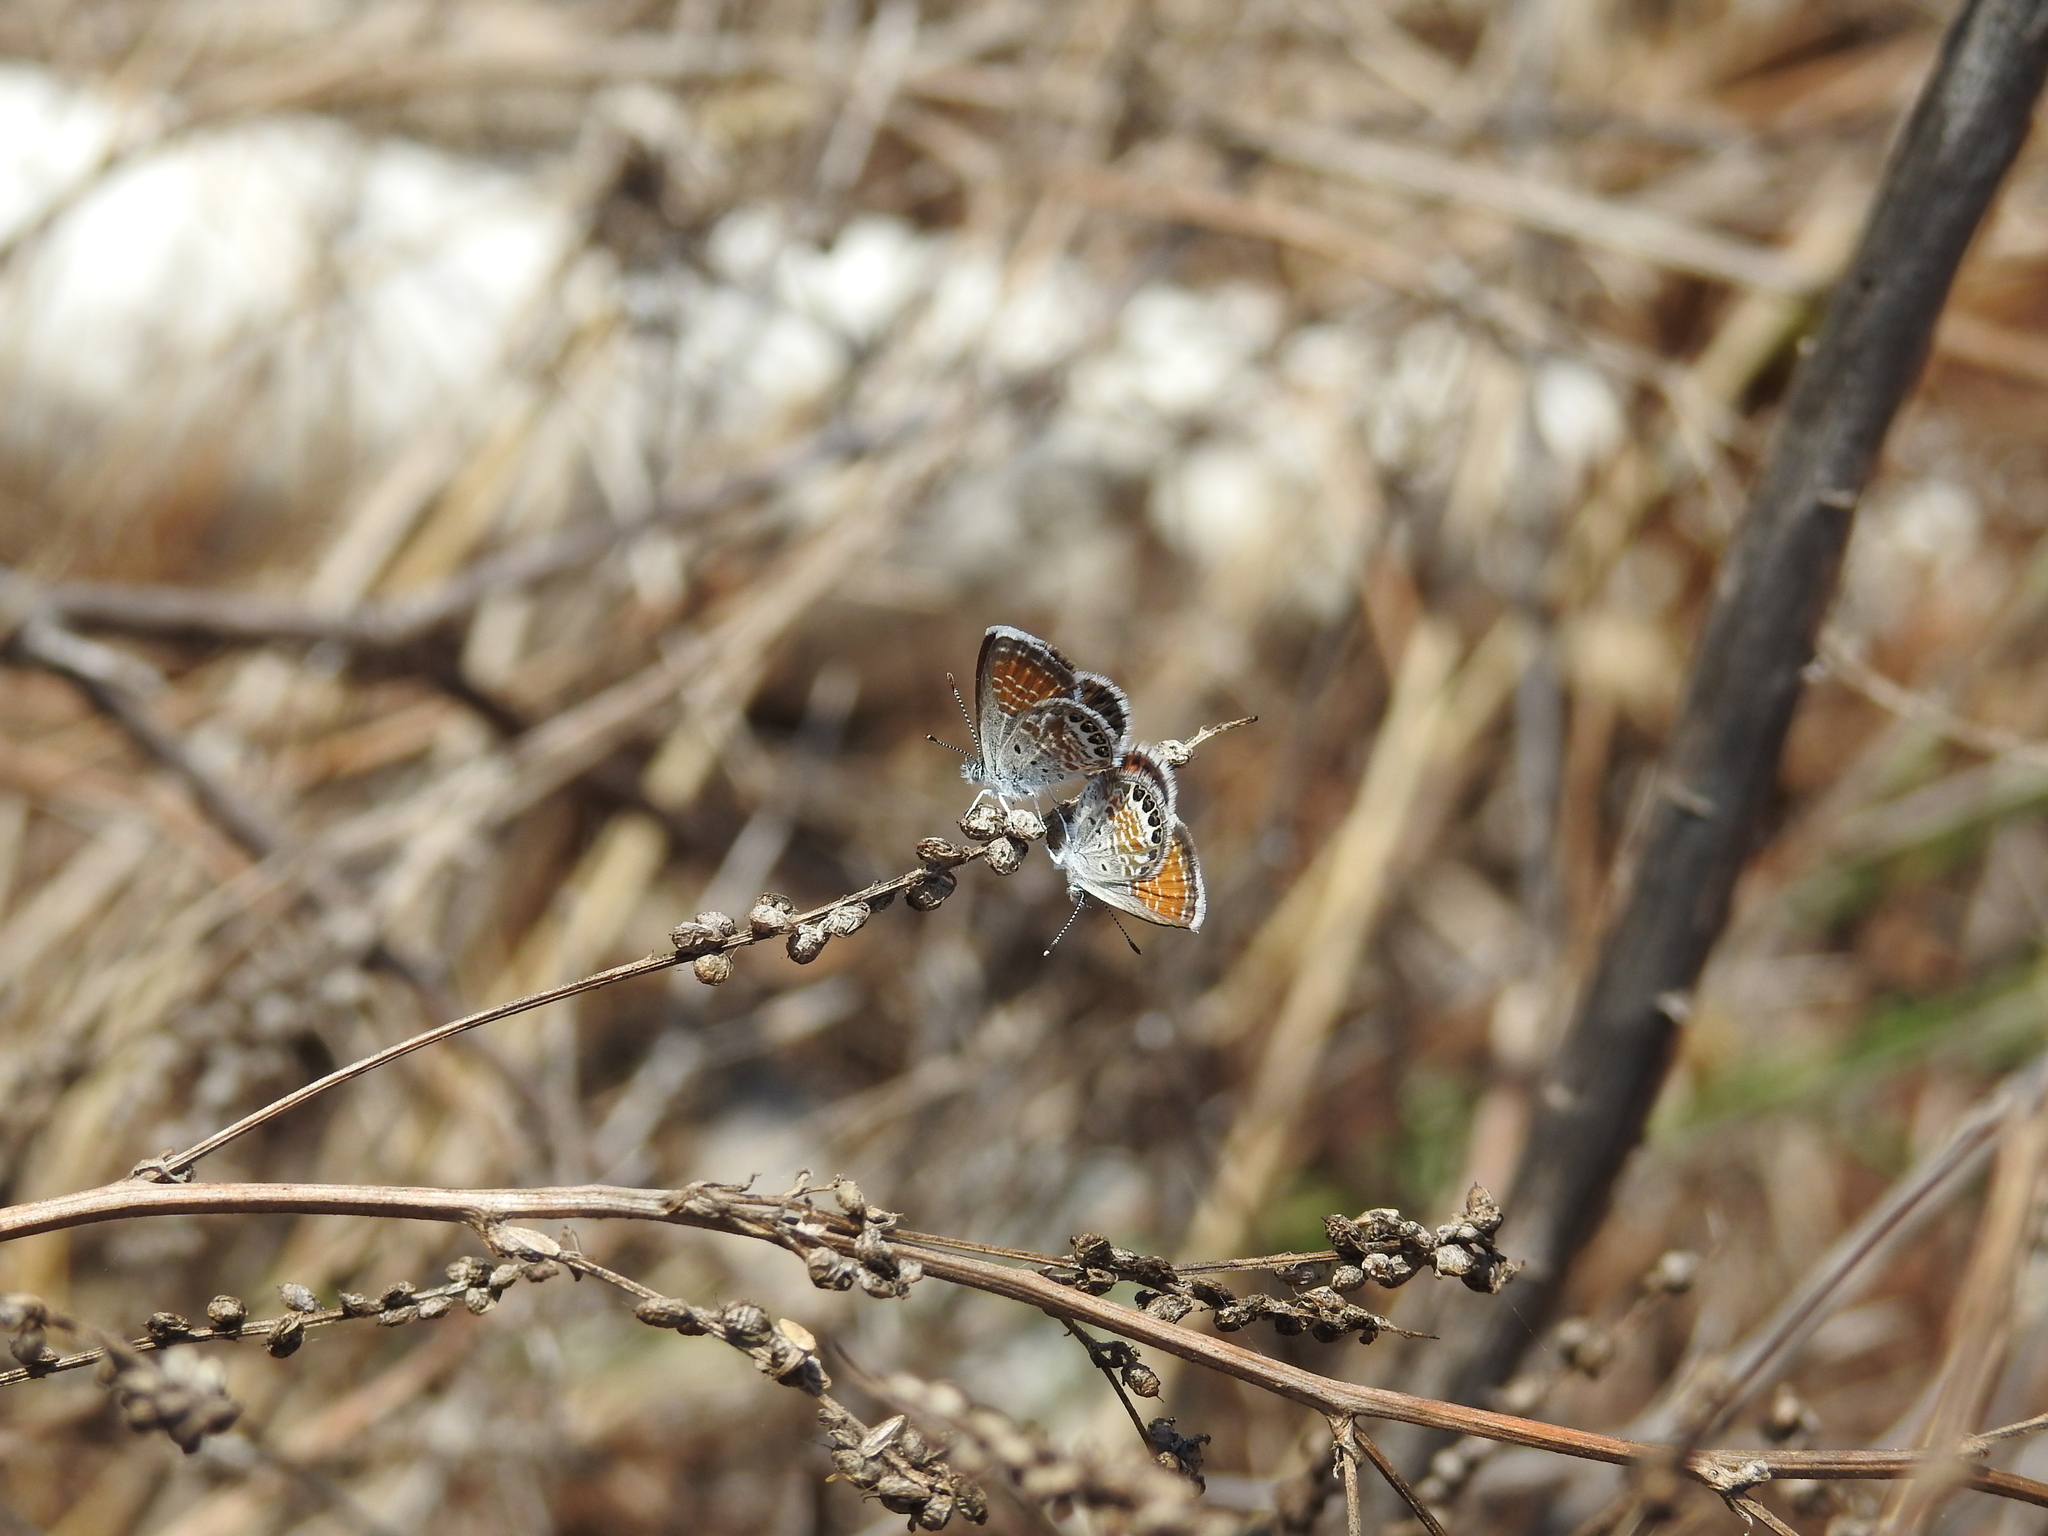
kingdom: Animalia
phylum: Arthropoda
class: Insecta
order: Lepidoptera
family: Lycaenidae
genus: Brephidium
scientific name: Brephidium exilis
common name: Pygmy blue
